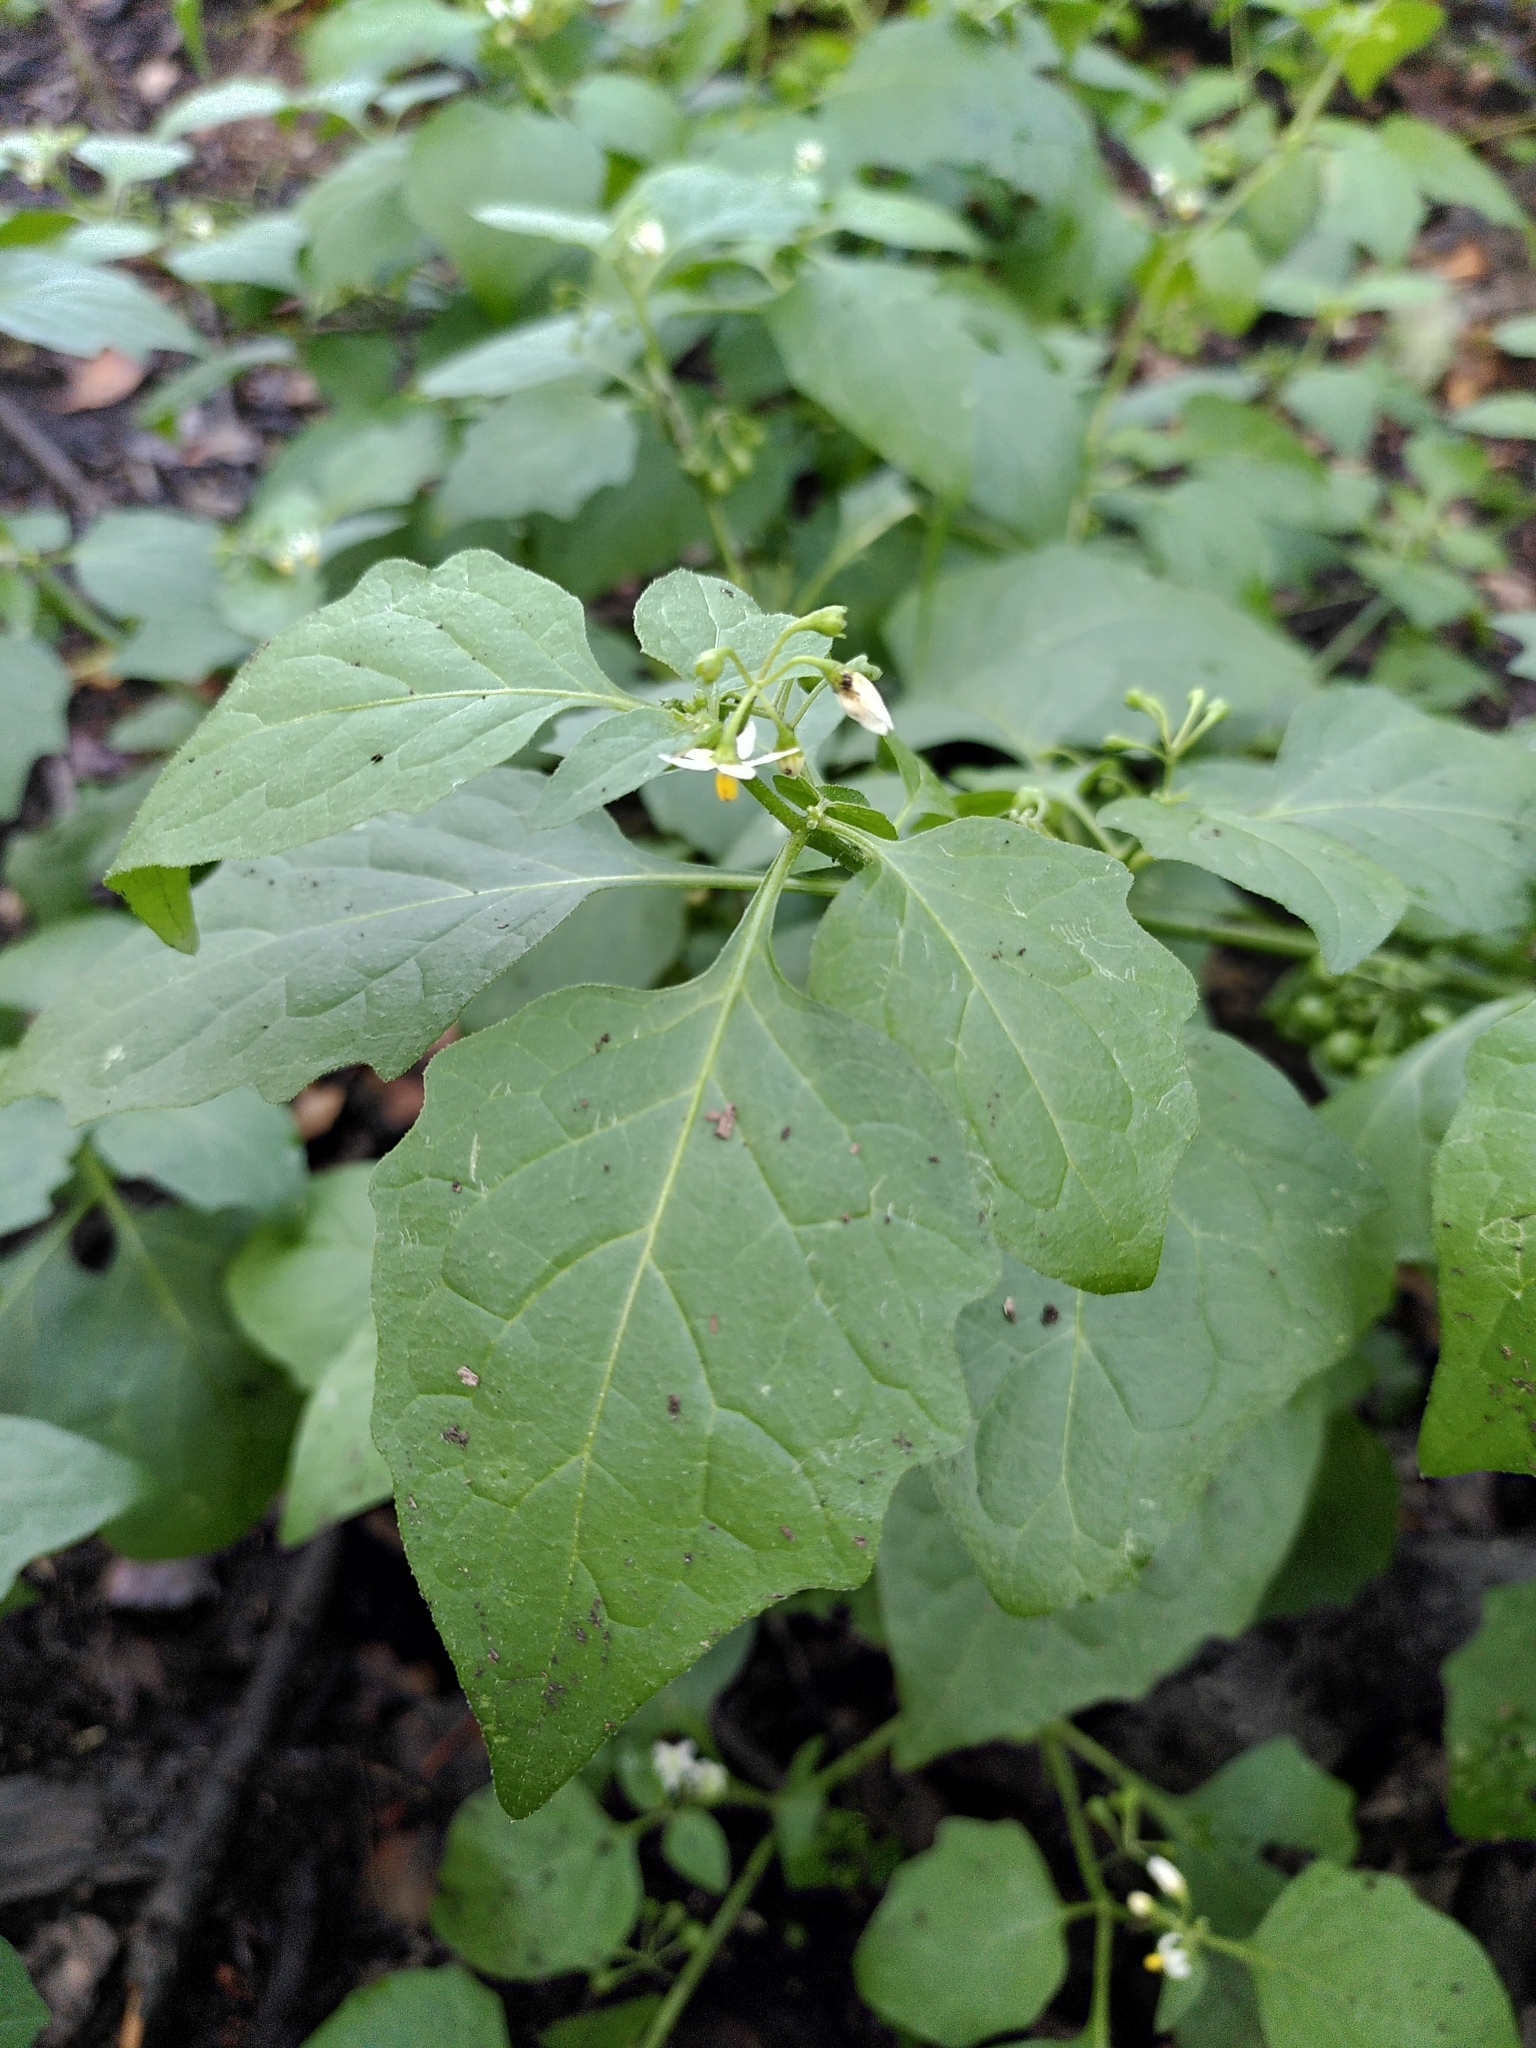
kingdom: Plantae
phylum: Tracheophyta
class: Magnoliopsida
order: Solanales
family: Solanaceae
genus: Solanum
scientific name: Solanum nigrum
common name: Black nightshade
